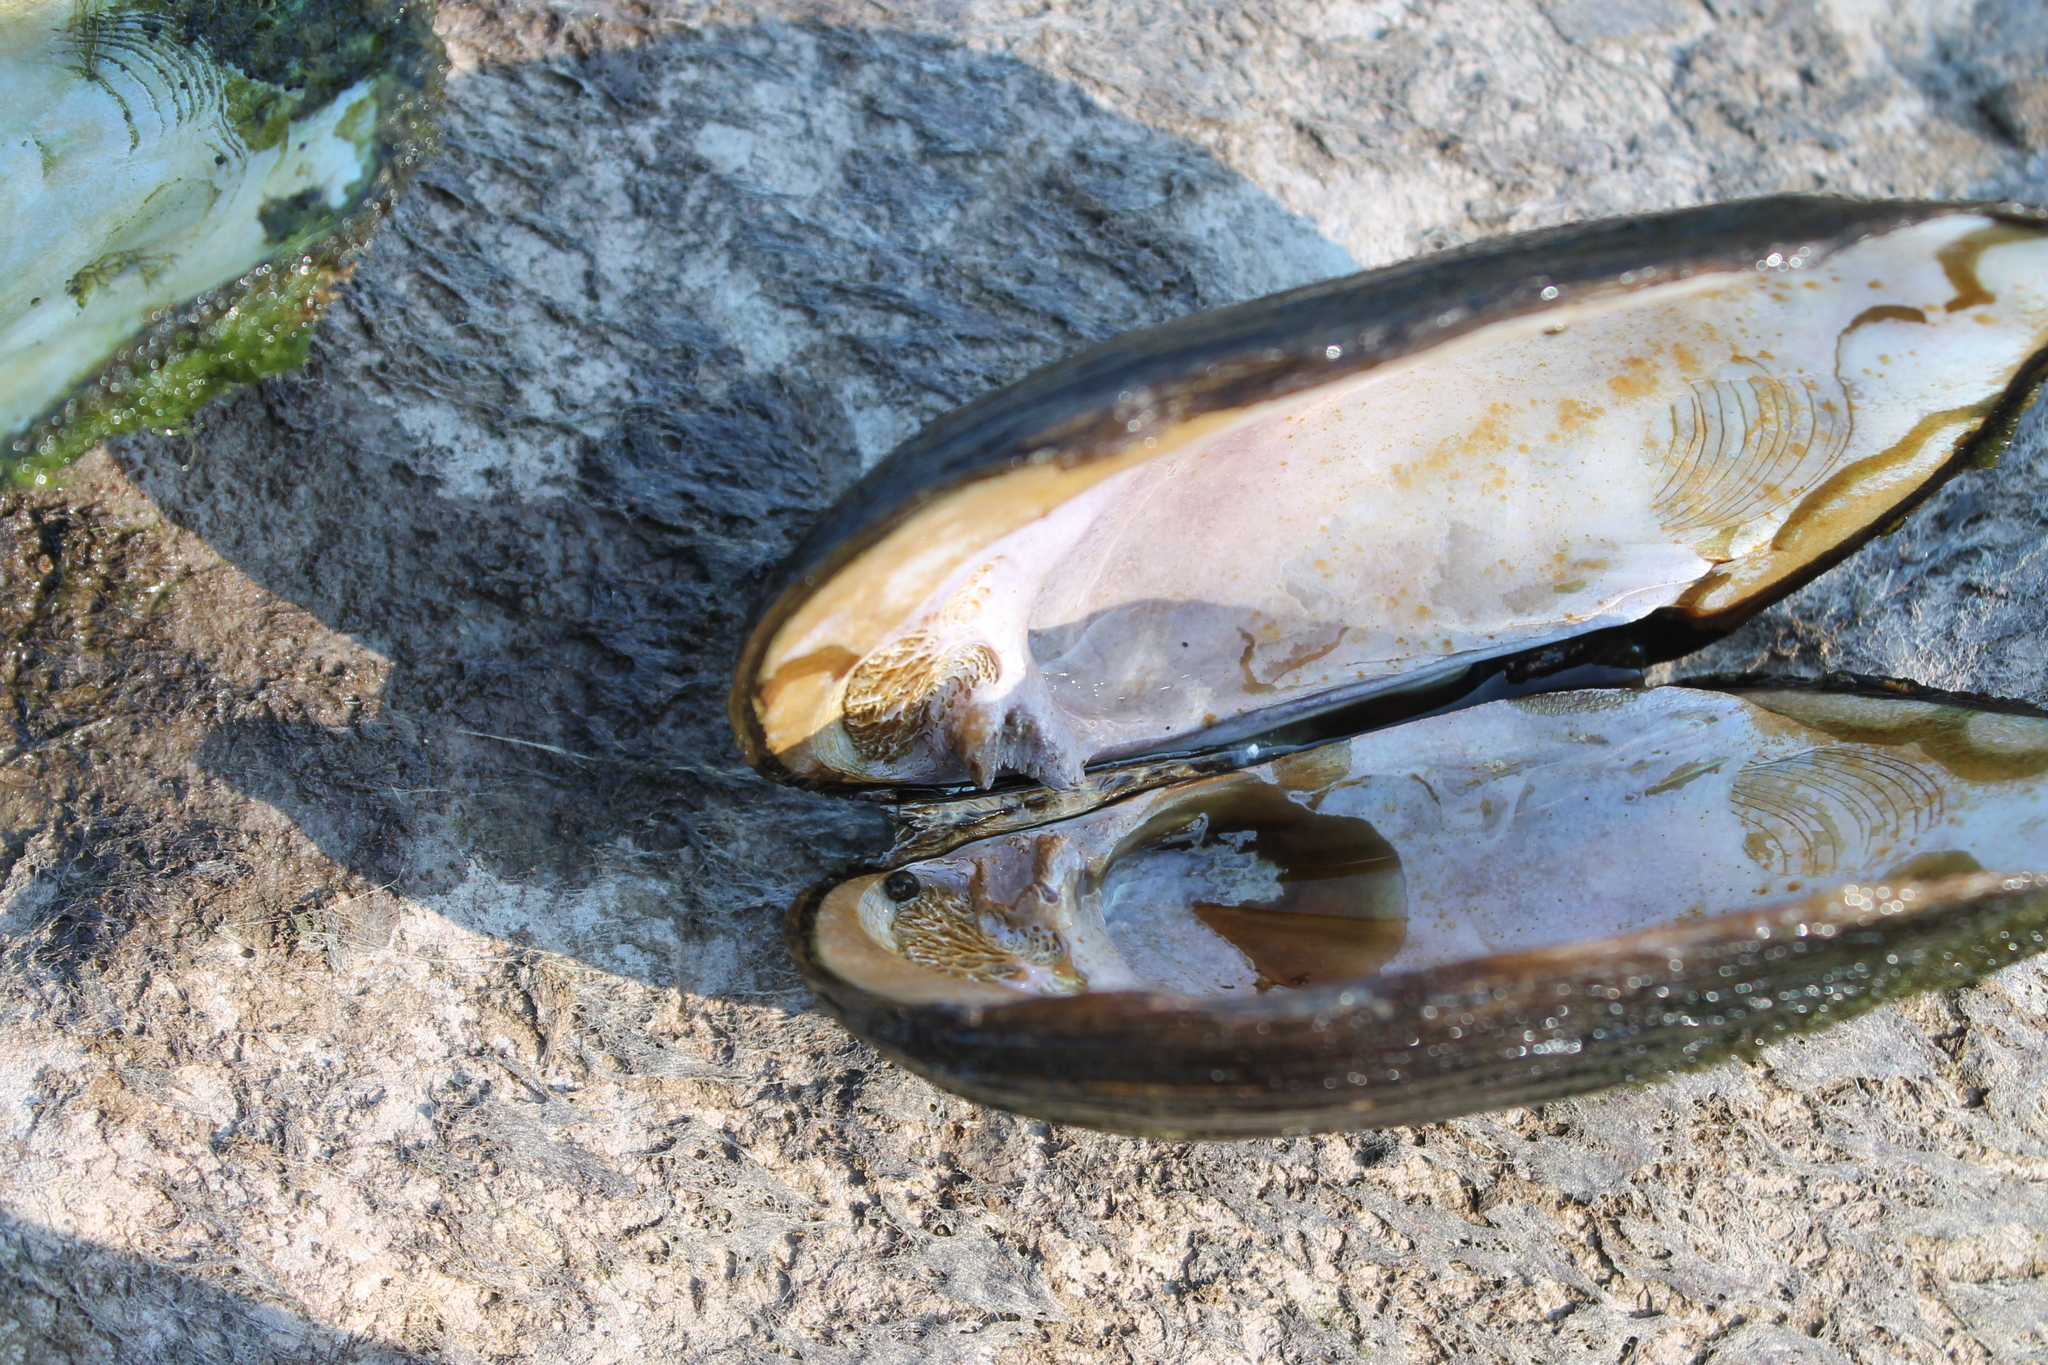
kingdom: Animalia
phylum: Mollusca
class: Bivalvia
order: Unionida
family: Unionidae
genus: Plectomerus
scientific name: Plectomerus dombeyanus
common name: Bankclimber
